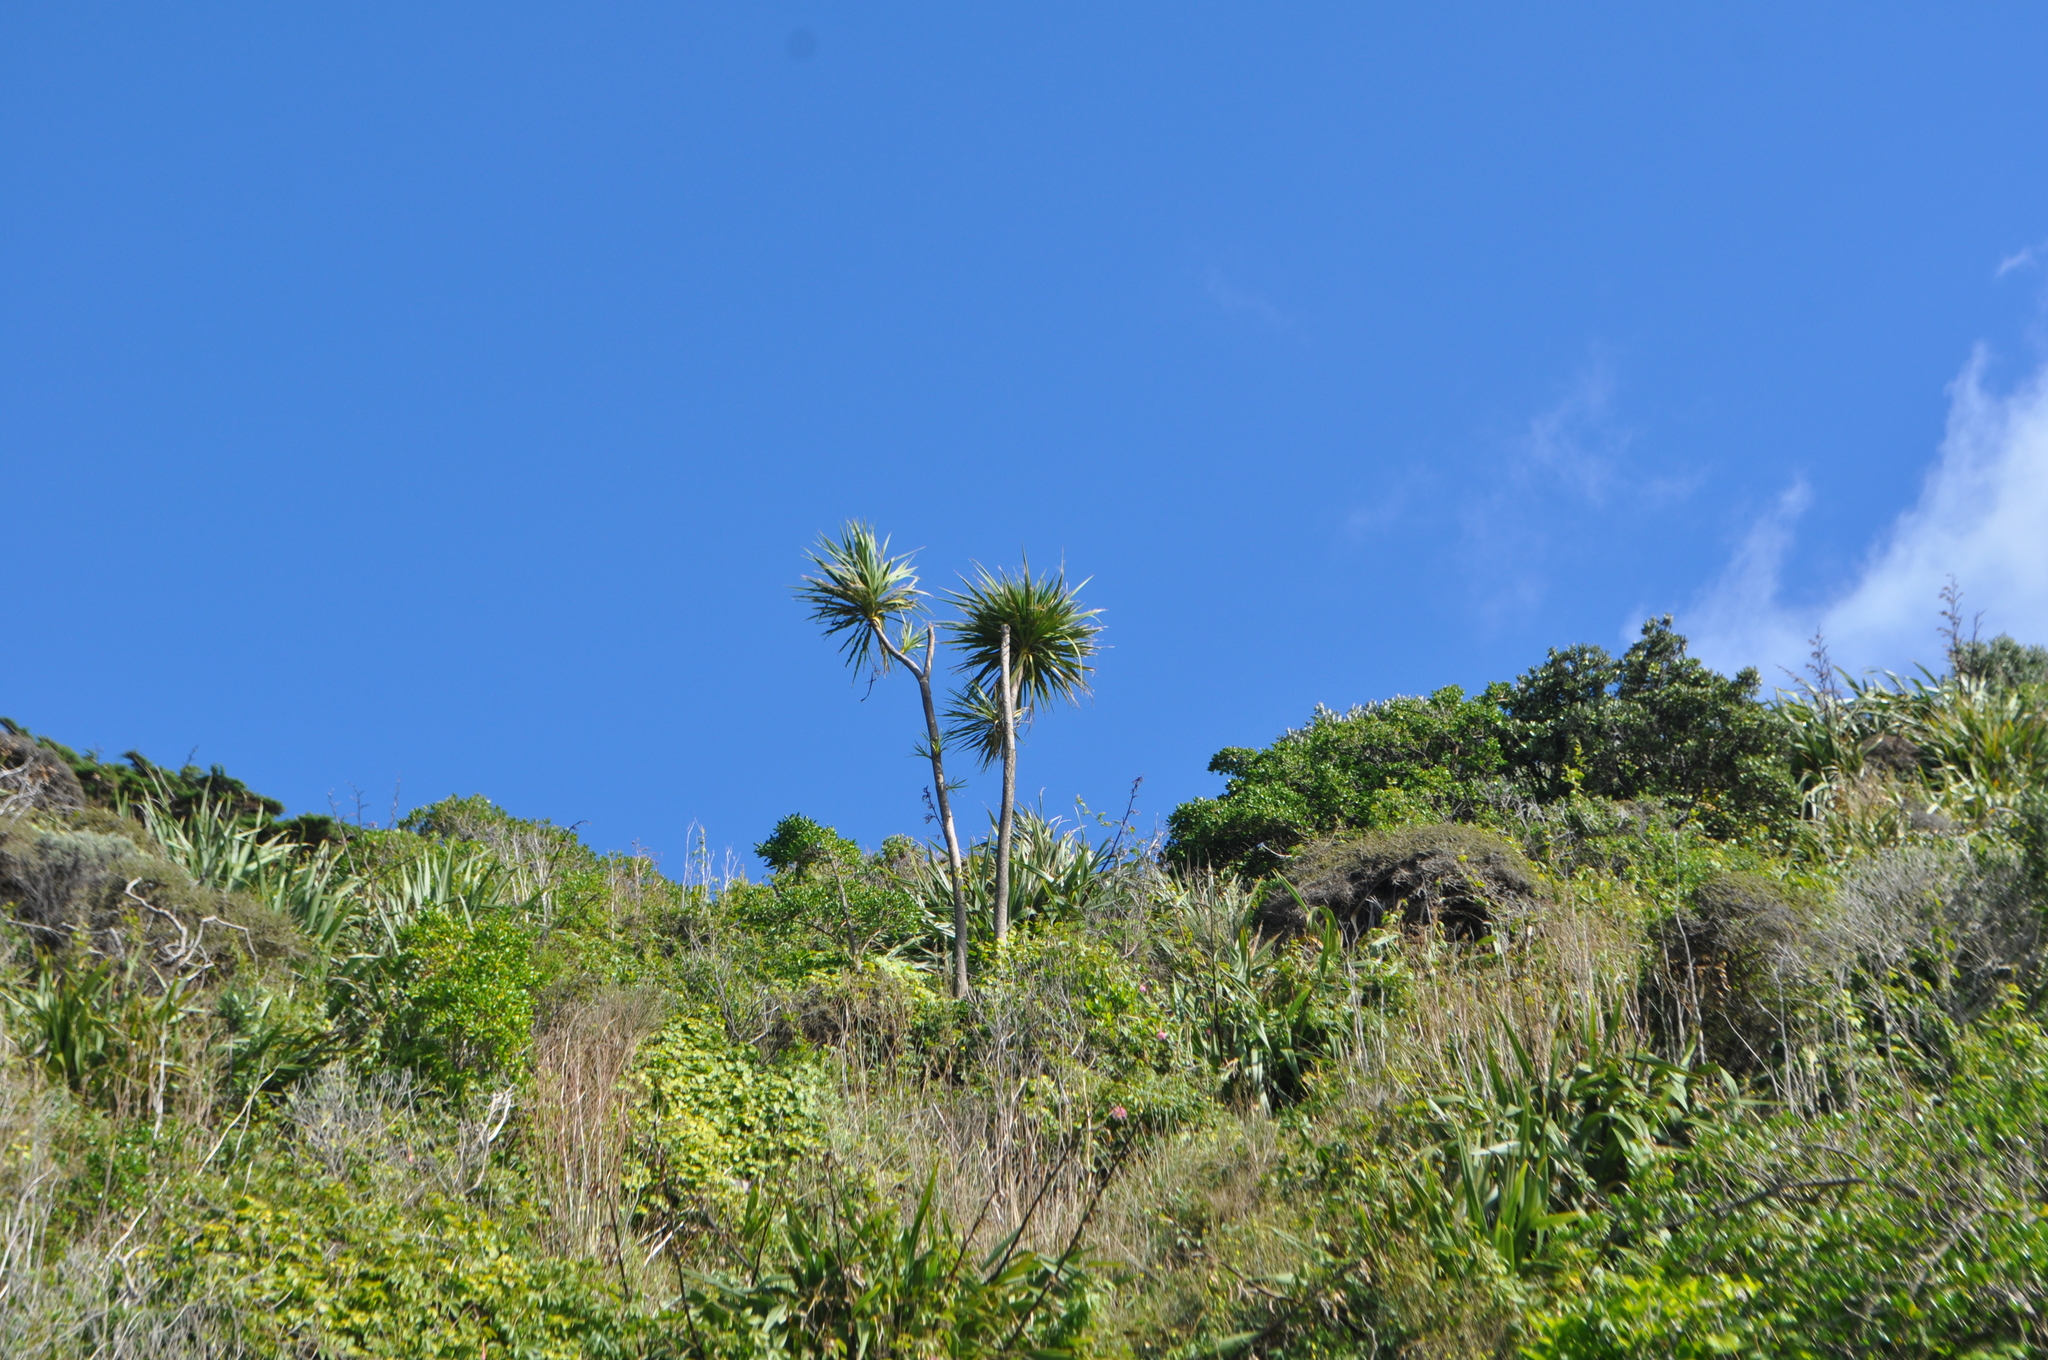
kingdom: Plantae
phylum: Tracheophyta
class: Liliopsida
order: Asparagales
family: Asparagaceae
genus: Cordyline
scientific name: Cordyline australis
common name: Cabbage-palm
